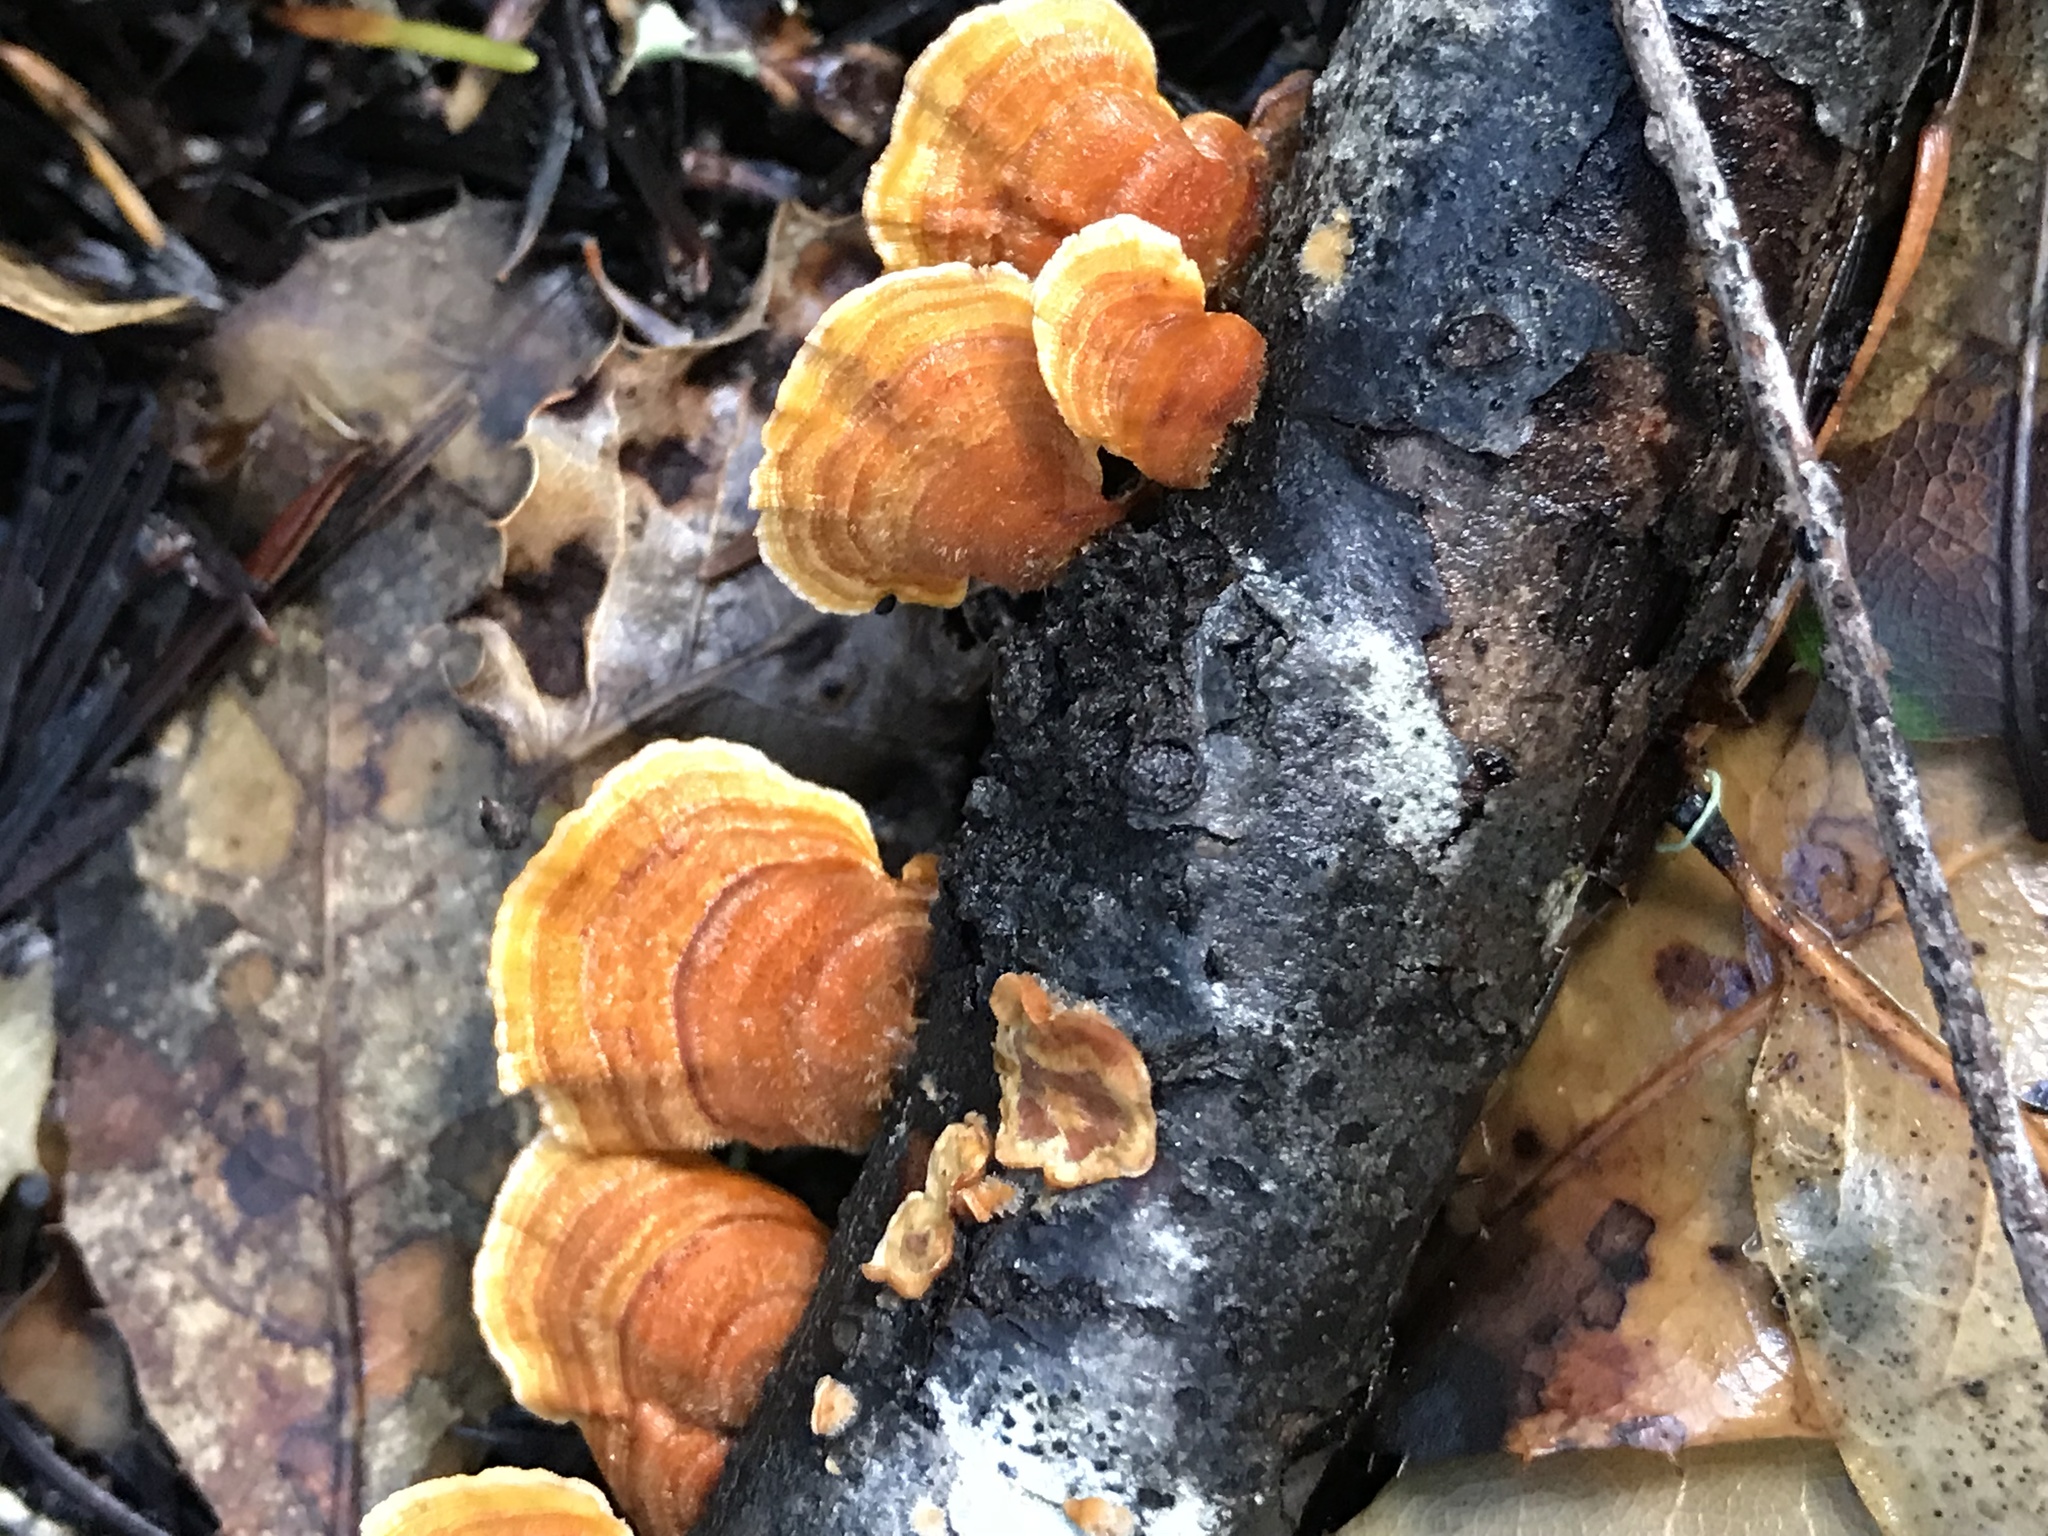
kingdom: Fungi
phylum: Basidiomycota
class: Agaricomycetes
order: Russulales
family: Stereaceae
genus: Stereum
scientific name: Stereum hirsutum
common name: Hairy curtain crust
